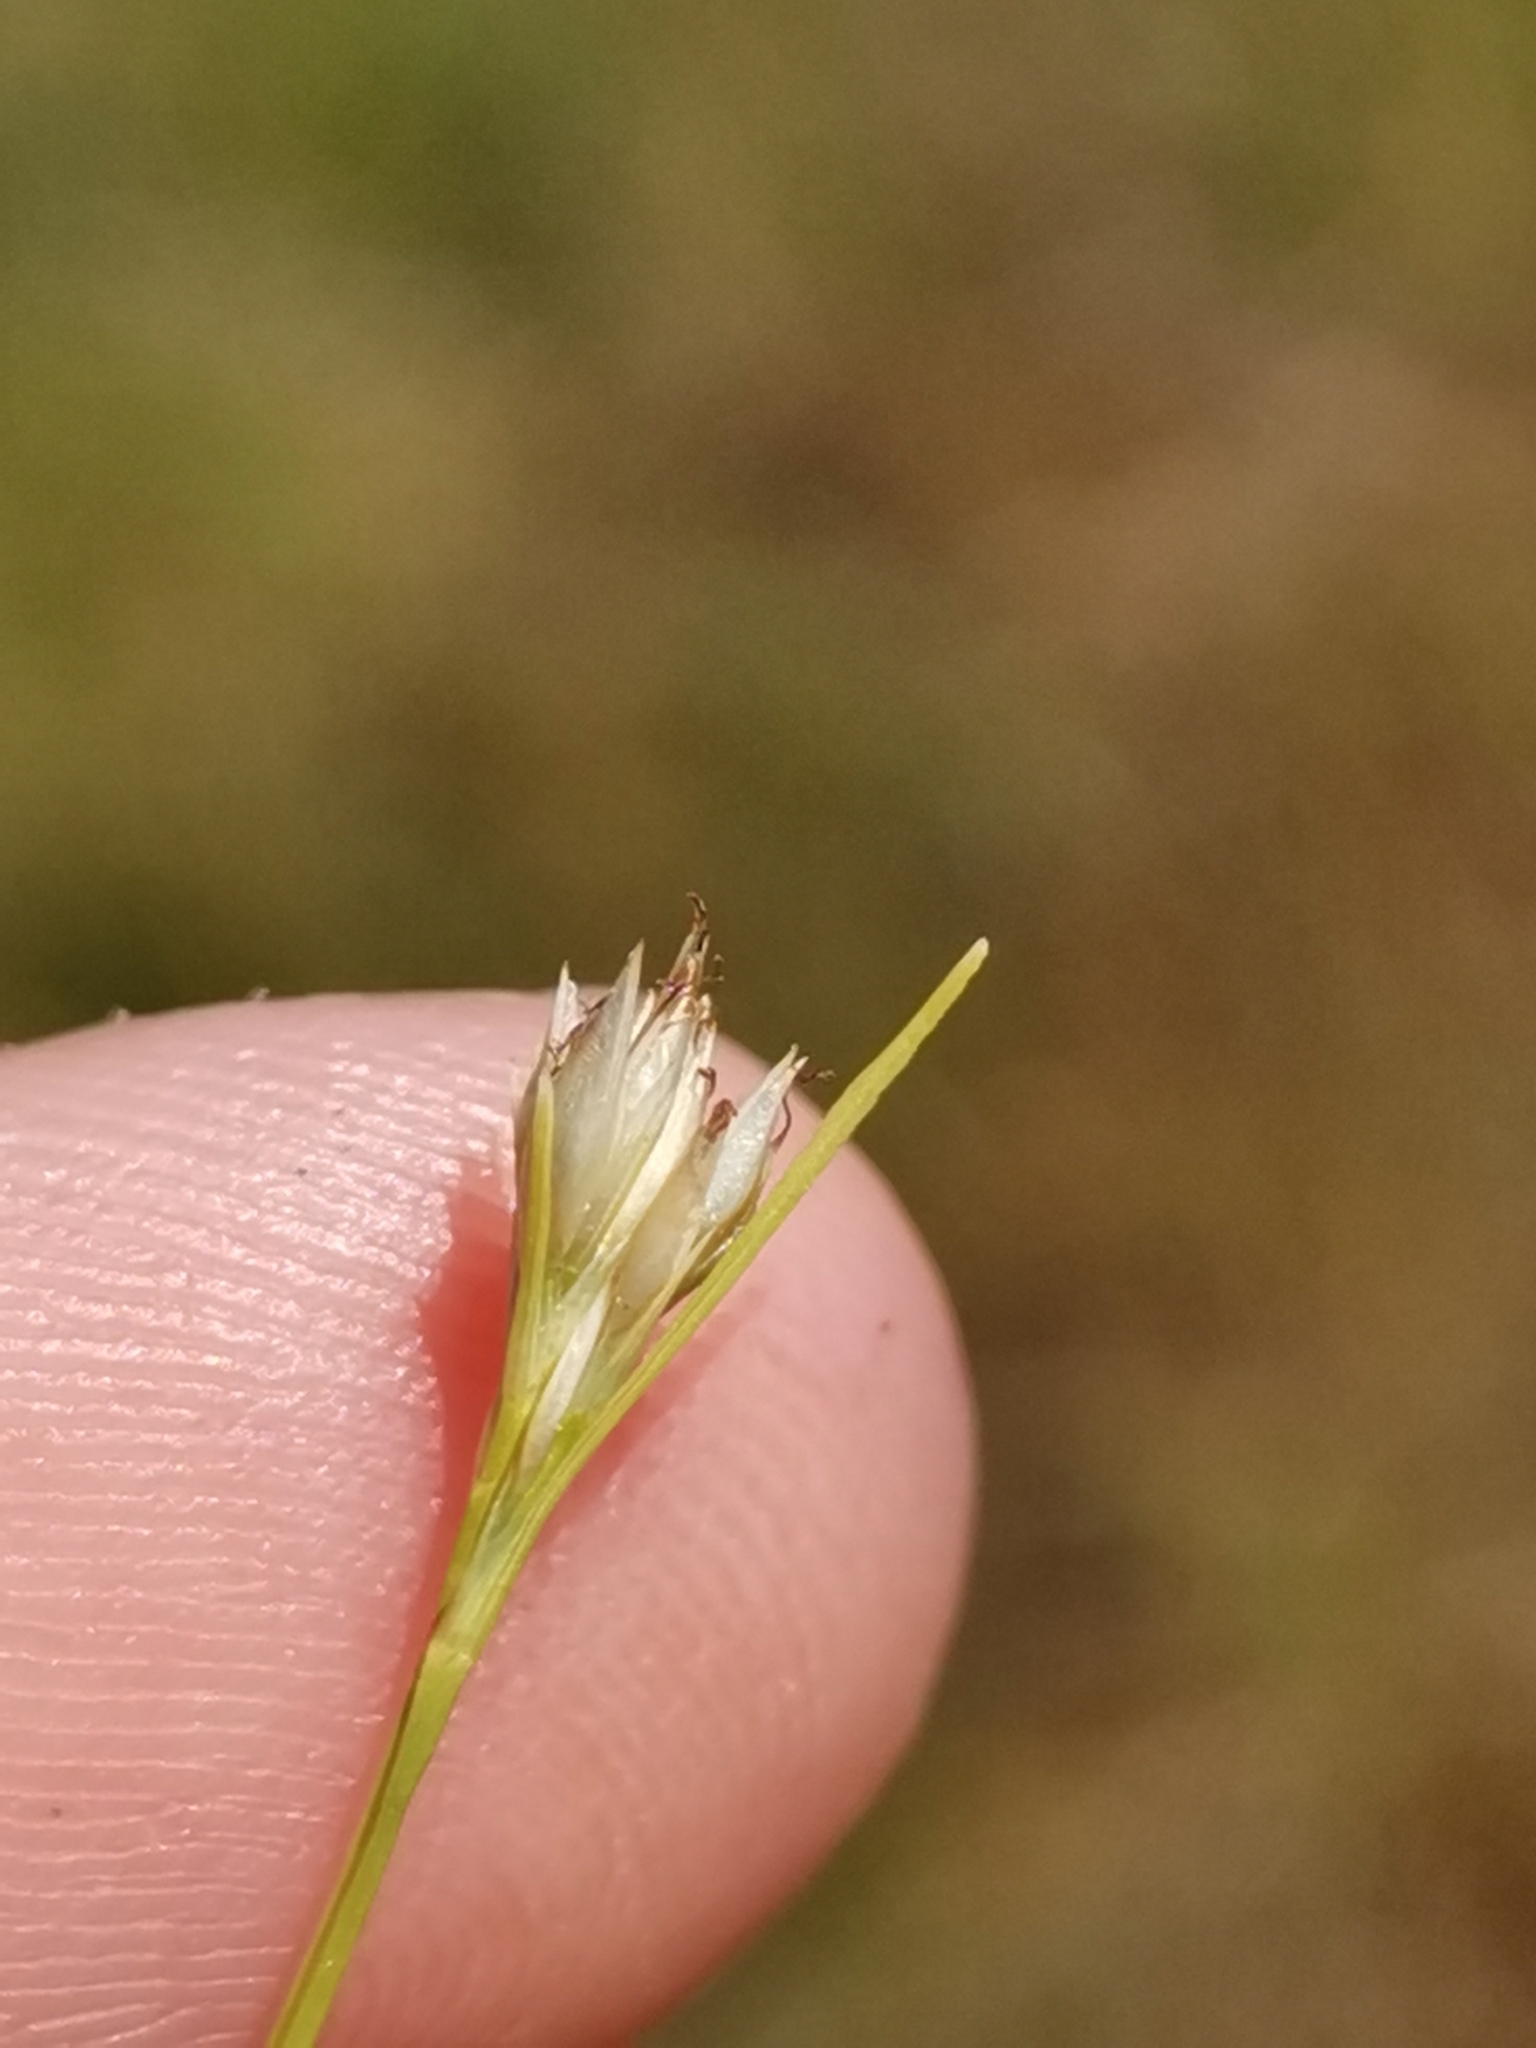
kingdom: Plantae
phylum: Tracheophyta
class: Liliopsida
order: Poales
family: Cyperaceae
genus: Rhynchospora
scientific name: Rhynchospora alba
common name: White beak-sedge
